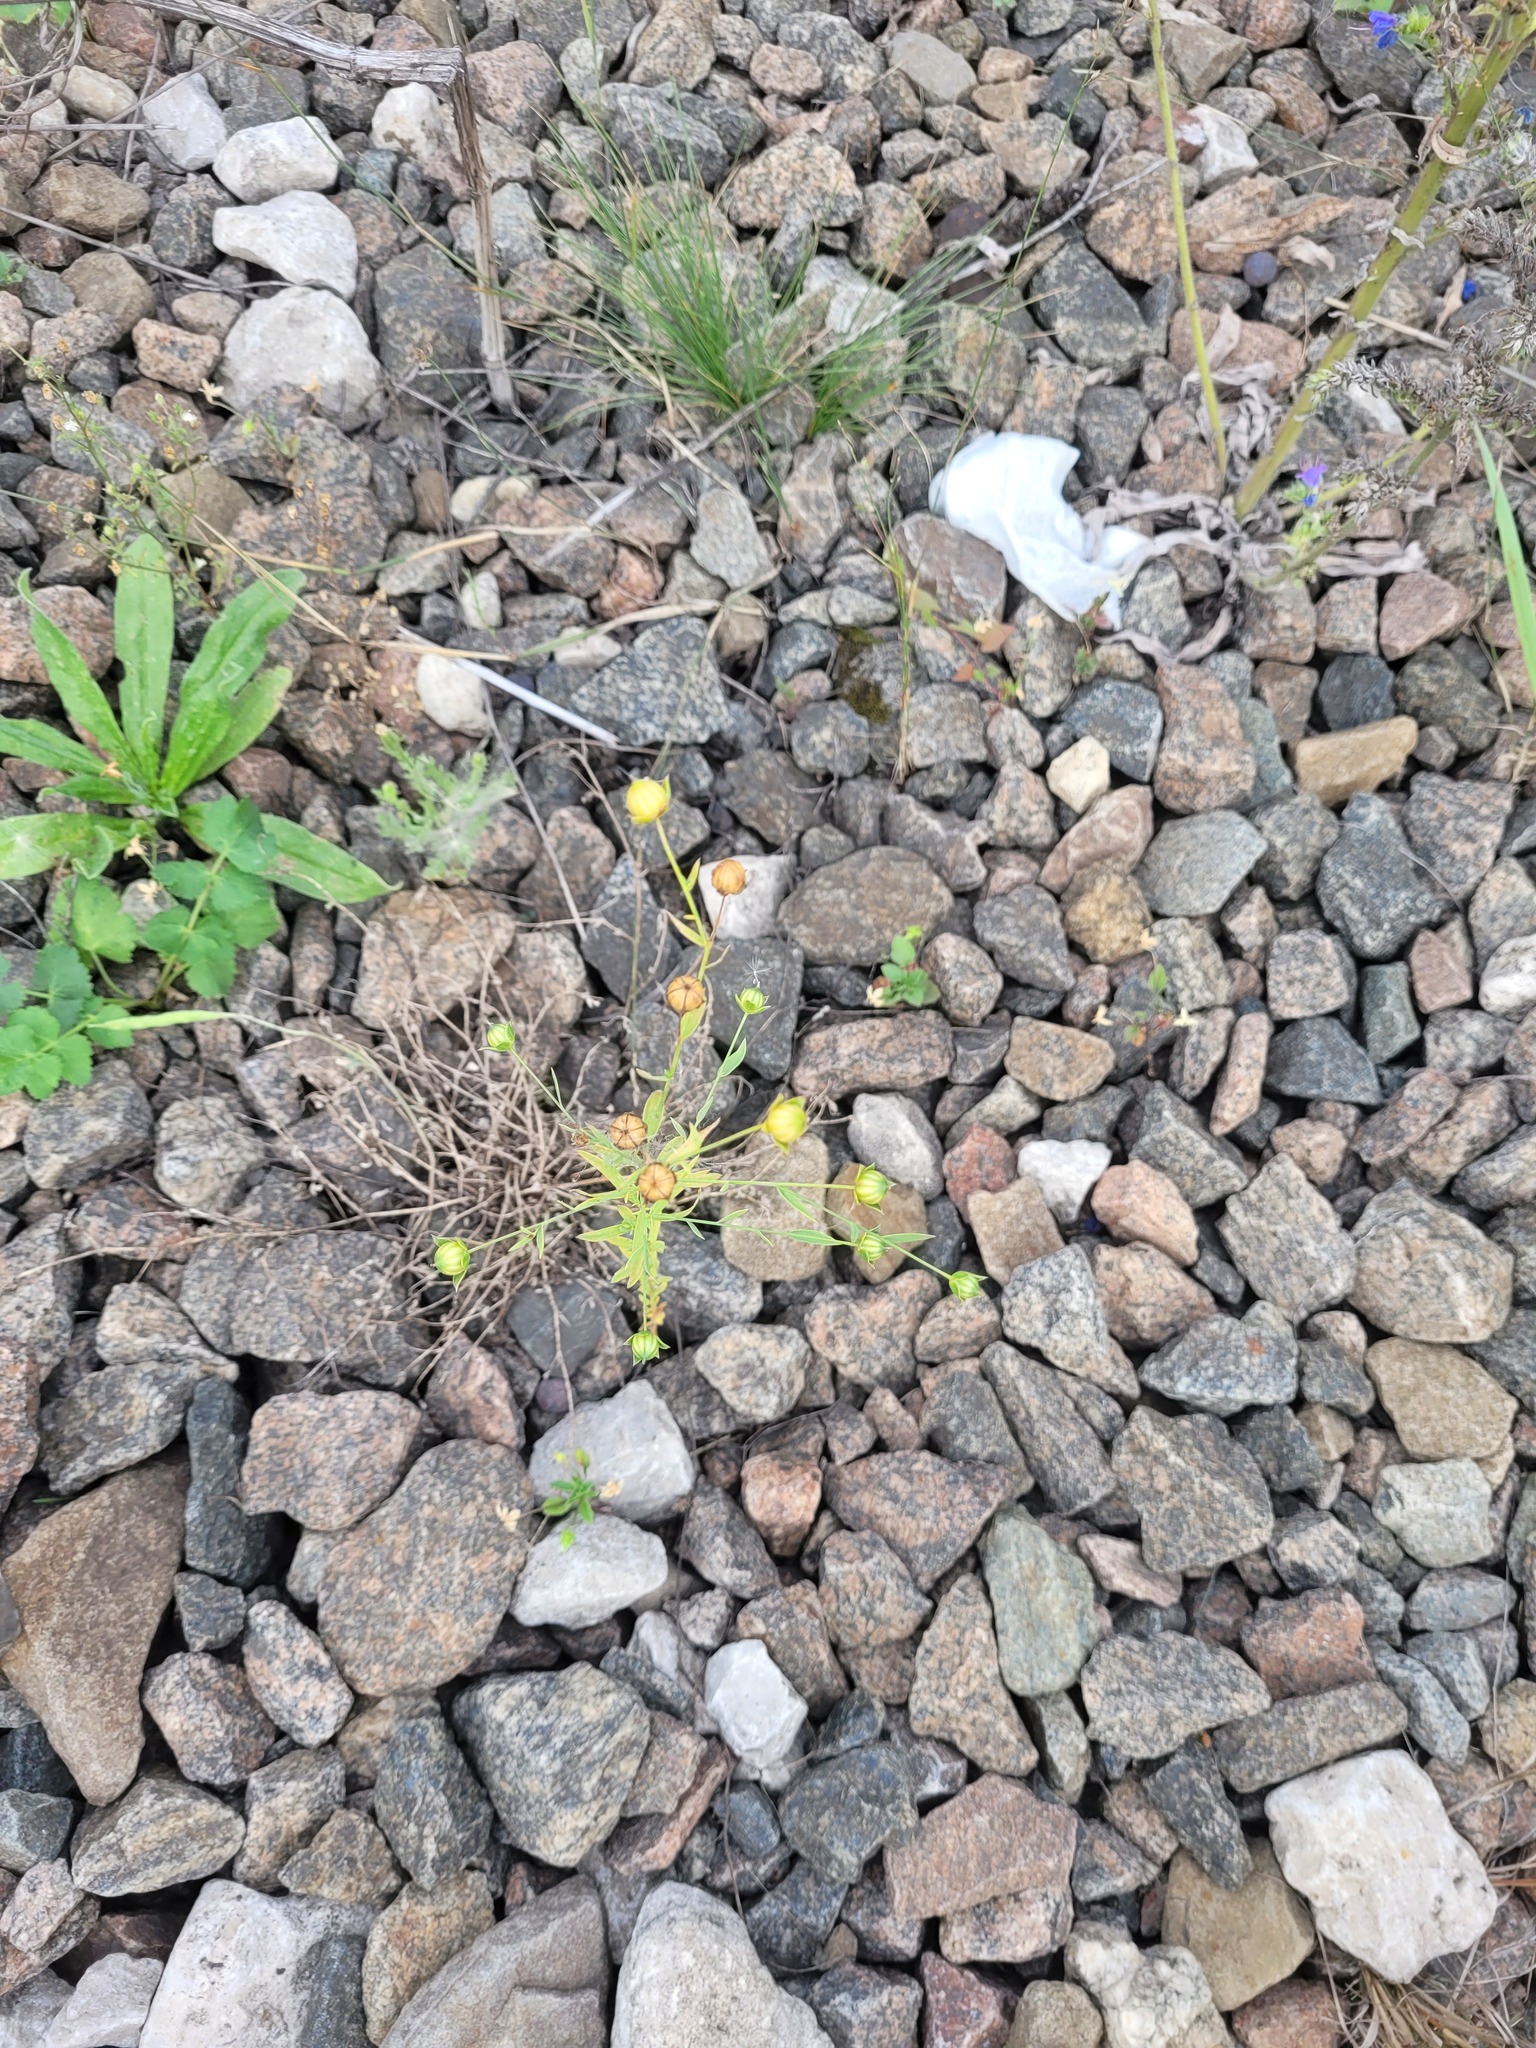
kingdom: Plantae
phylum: Tracheophyta
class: Magnoliopsida
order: Malpighiales
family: Linaceae
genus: Linum
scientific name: Linum usitatissimum
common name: Flax
